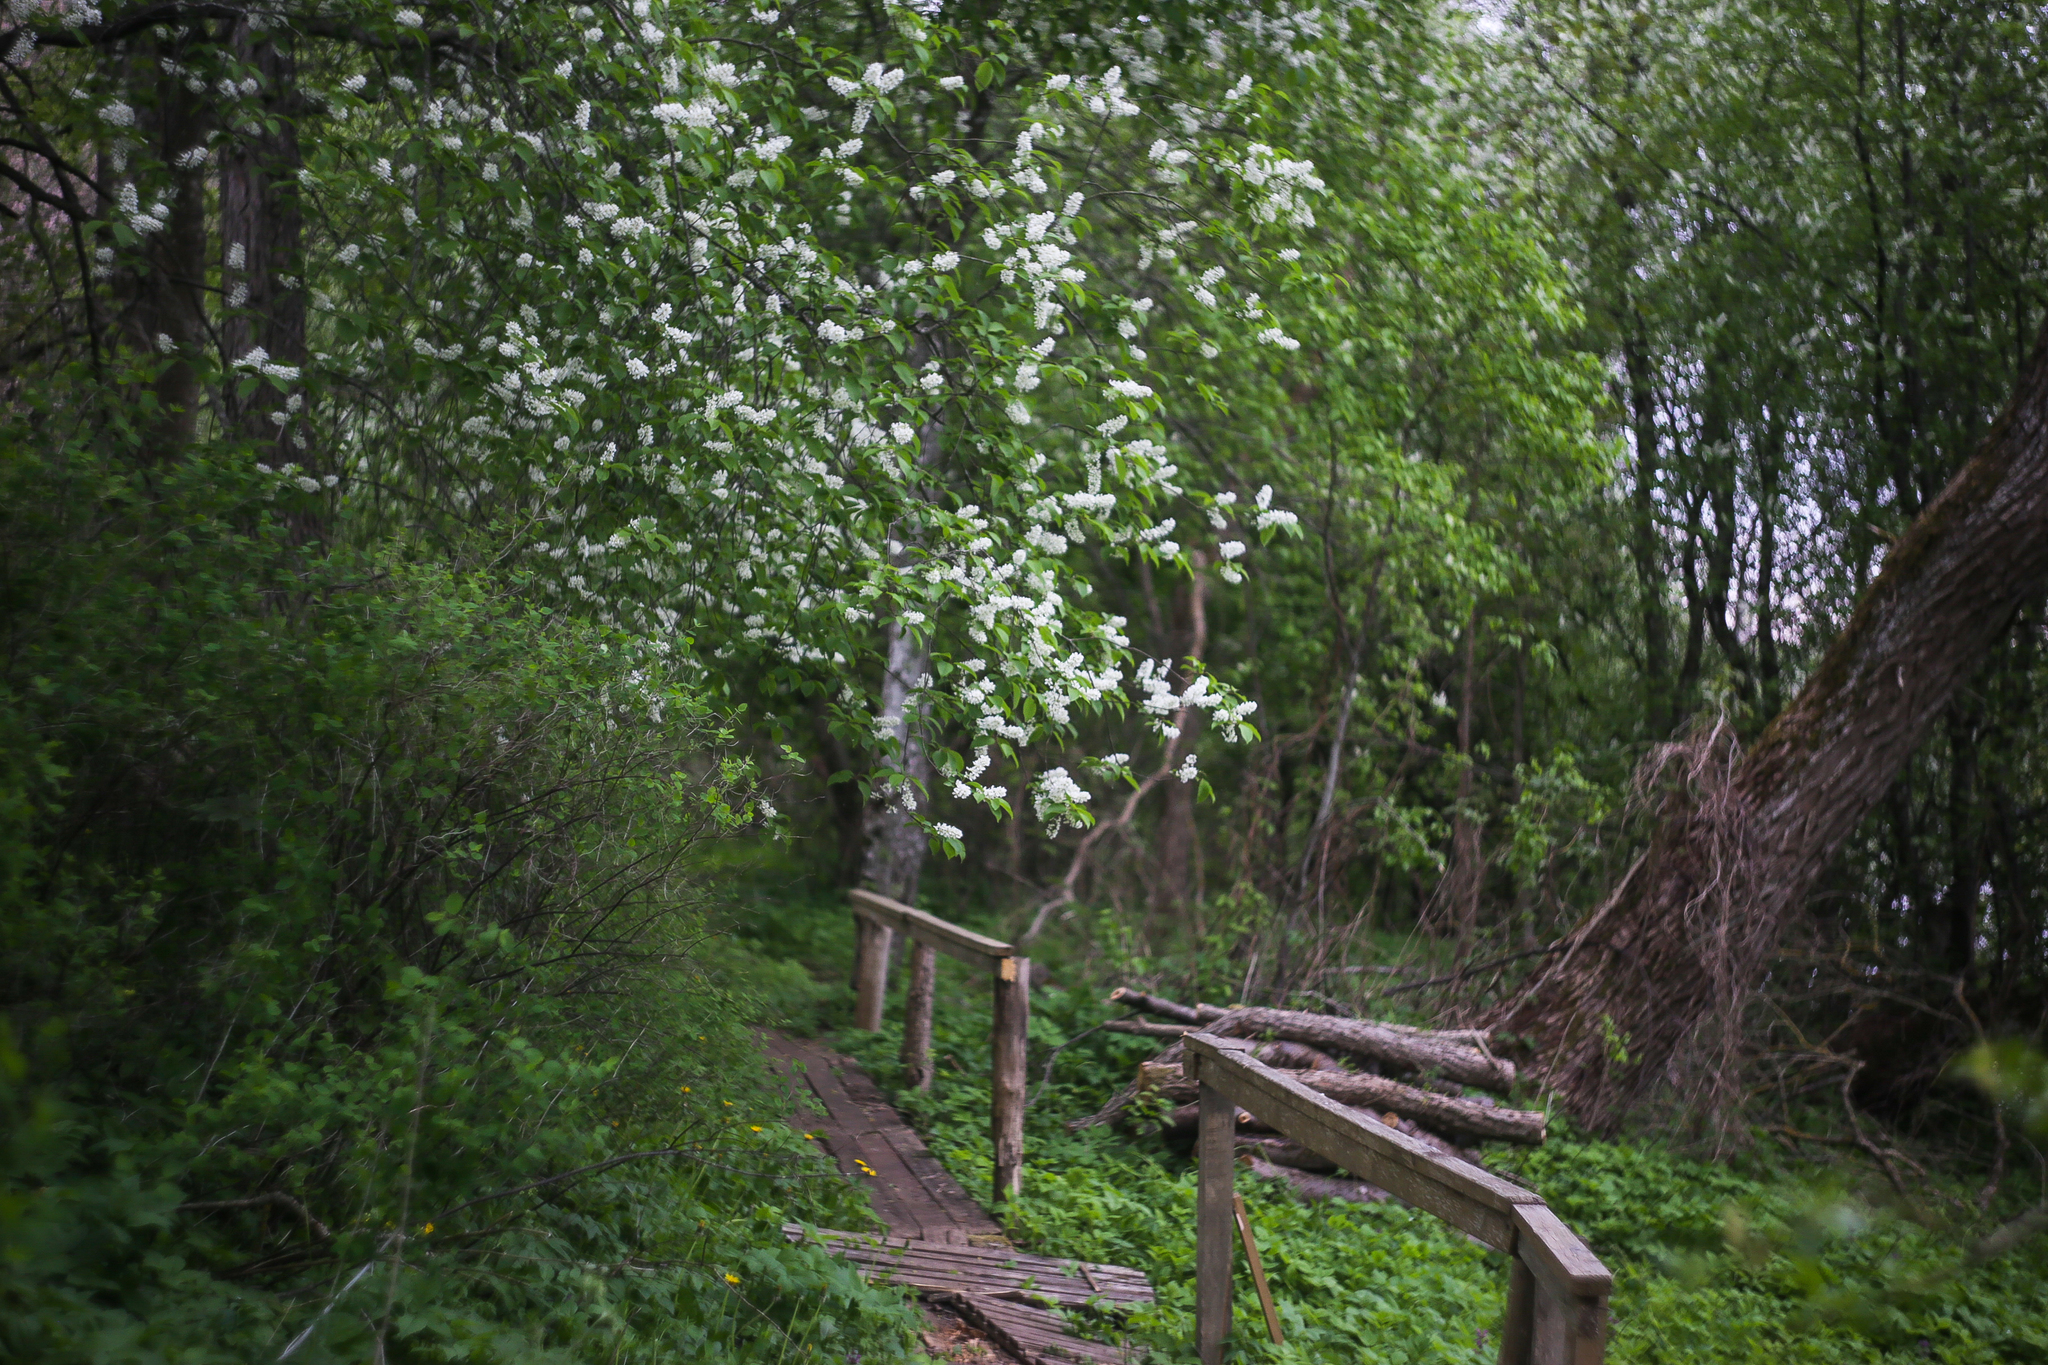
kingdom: Plantae
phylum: Tracheophyta
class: Magnoliopsida
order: Rosales
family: Rosaceae
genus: Prunus
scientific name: Prunus padus
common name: Bird cherry
